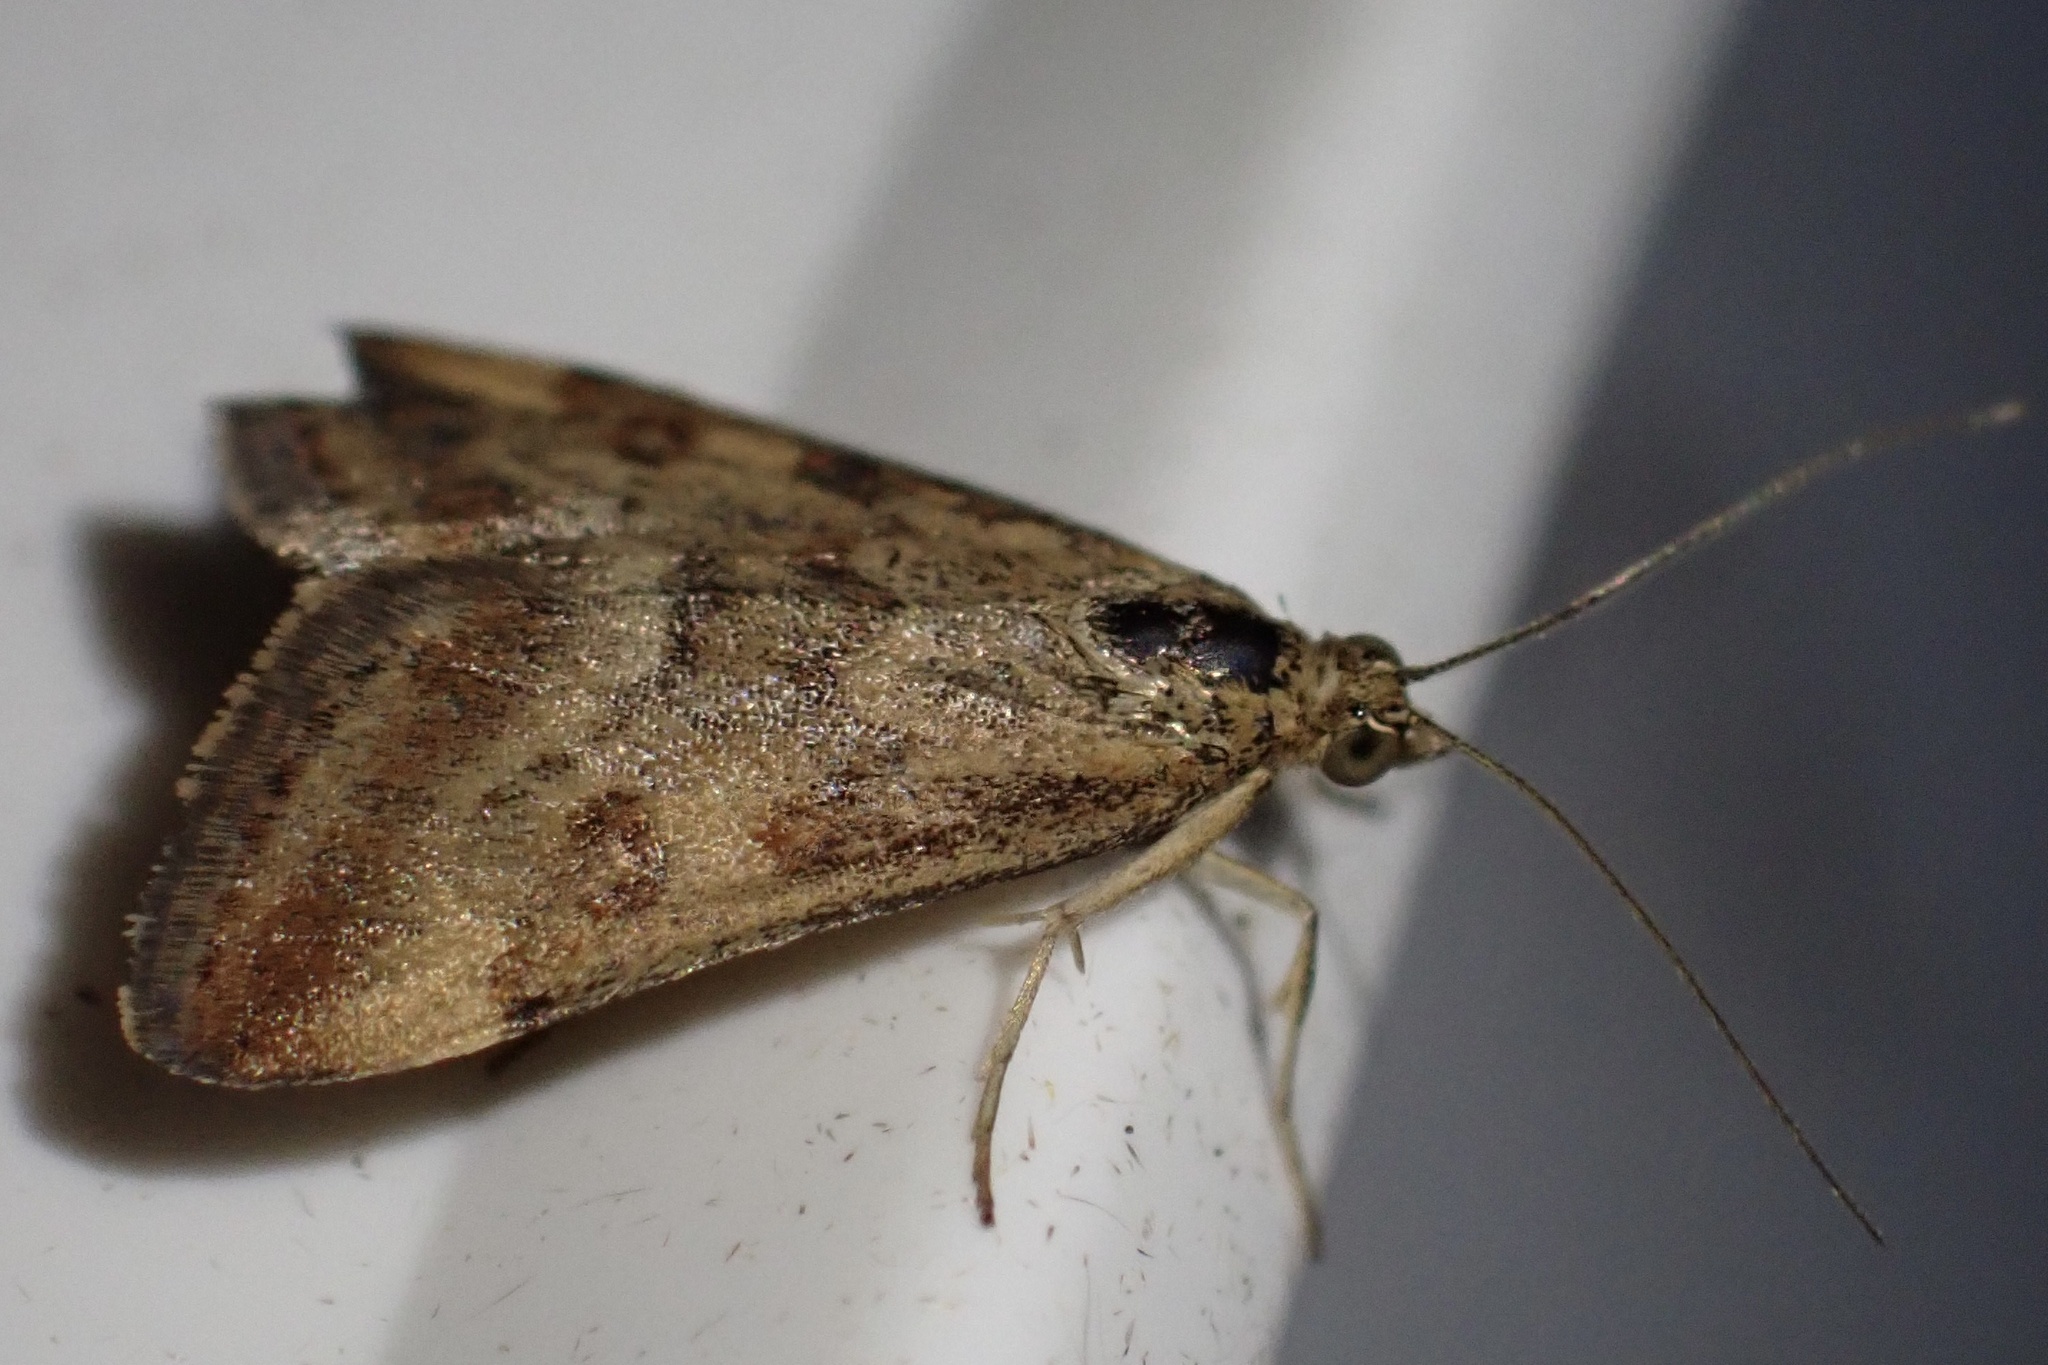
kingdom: Animalia
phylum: Arthropoda
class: Insecta
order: Lepidoptera
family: Crambidae
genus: Pyrausta
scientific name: Pyrausta despicata
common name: Straw-barred pearl
